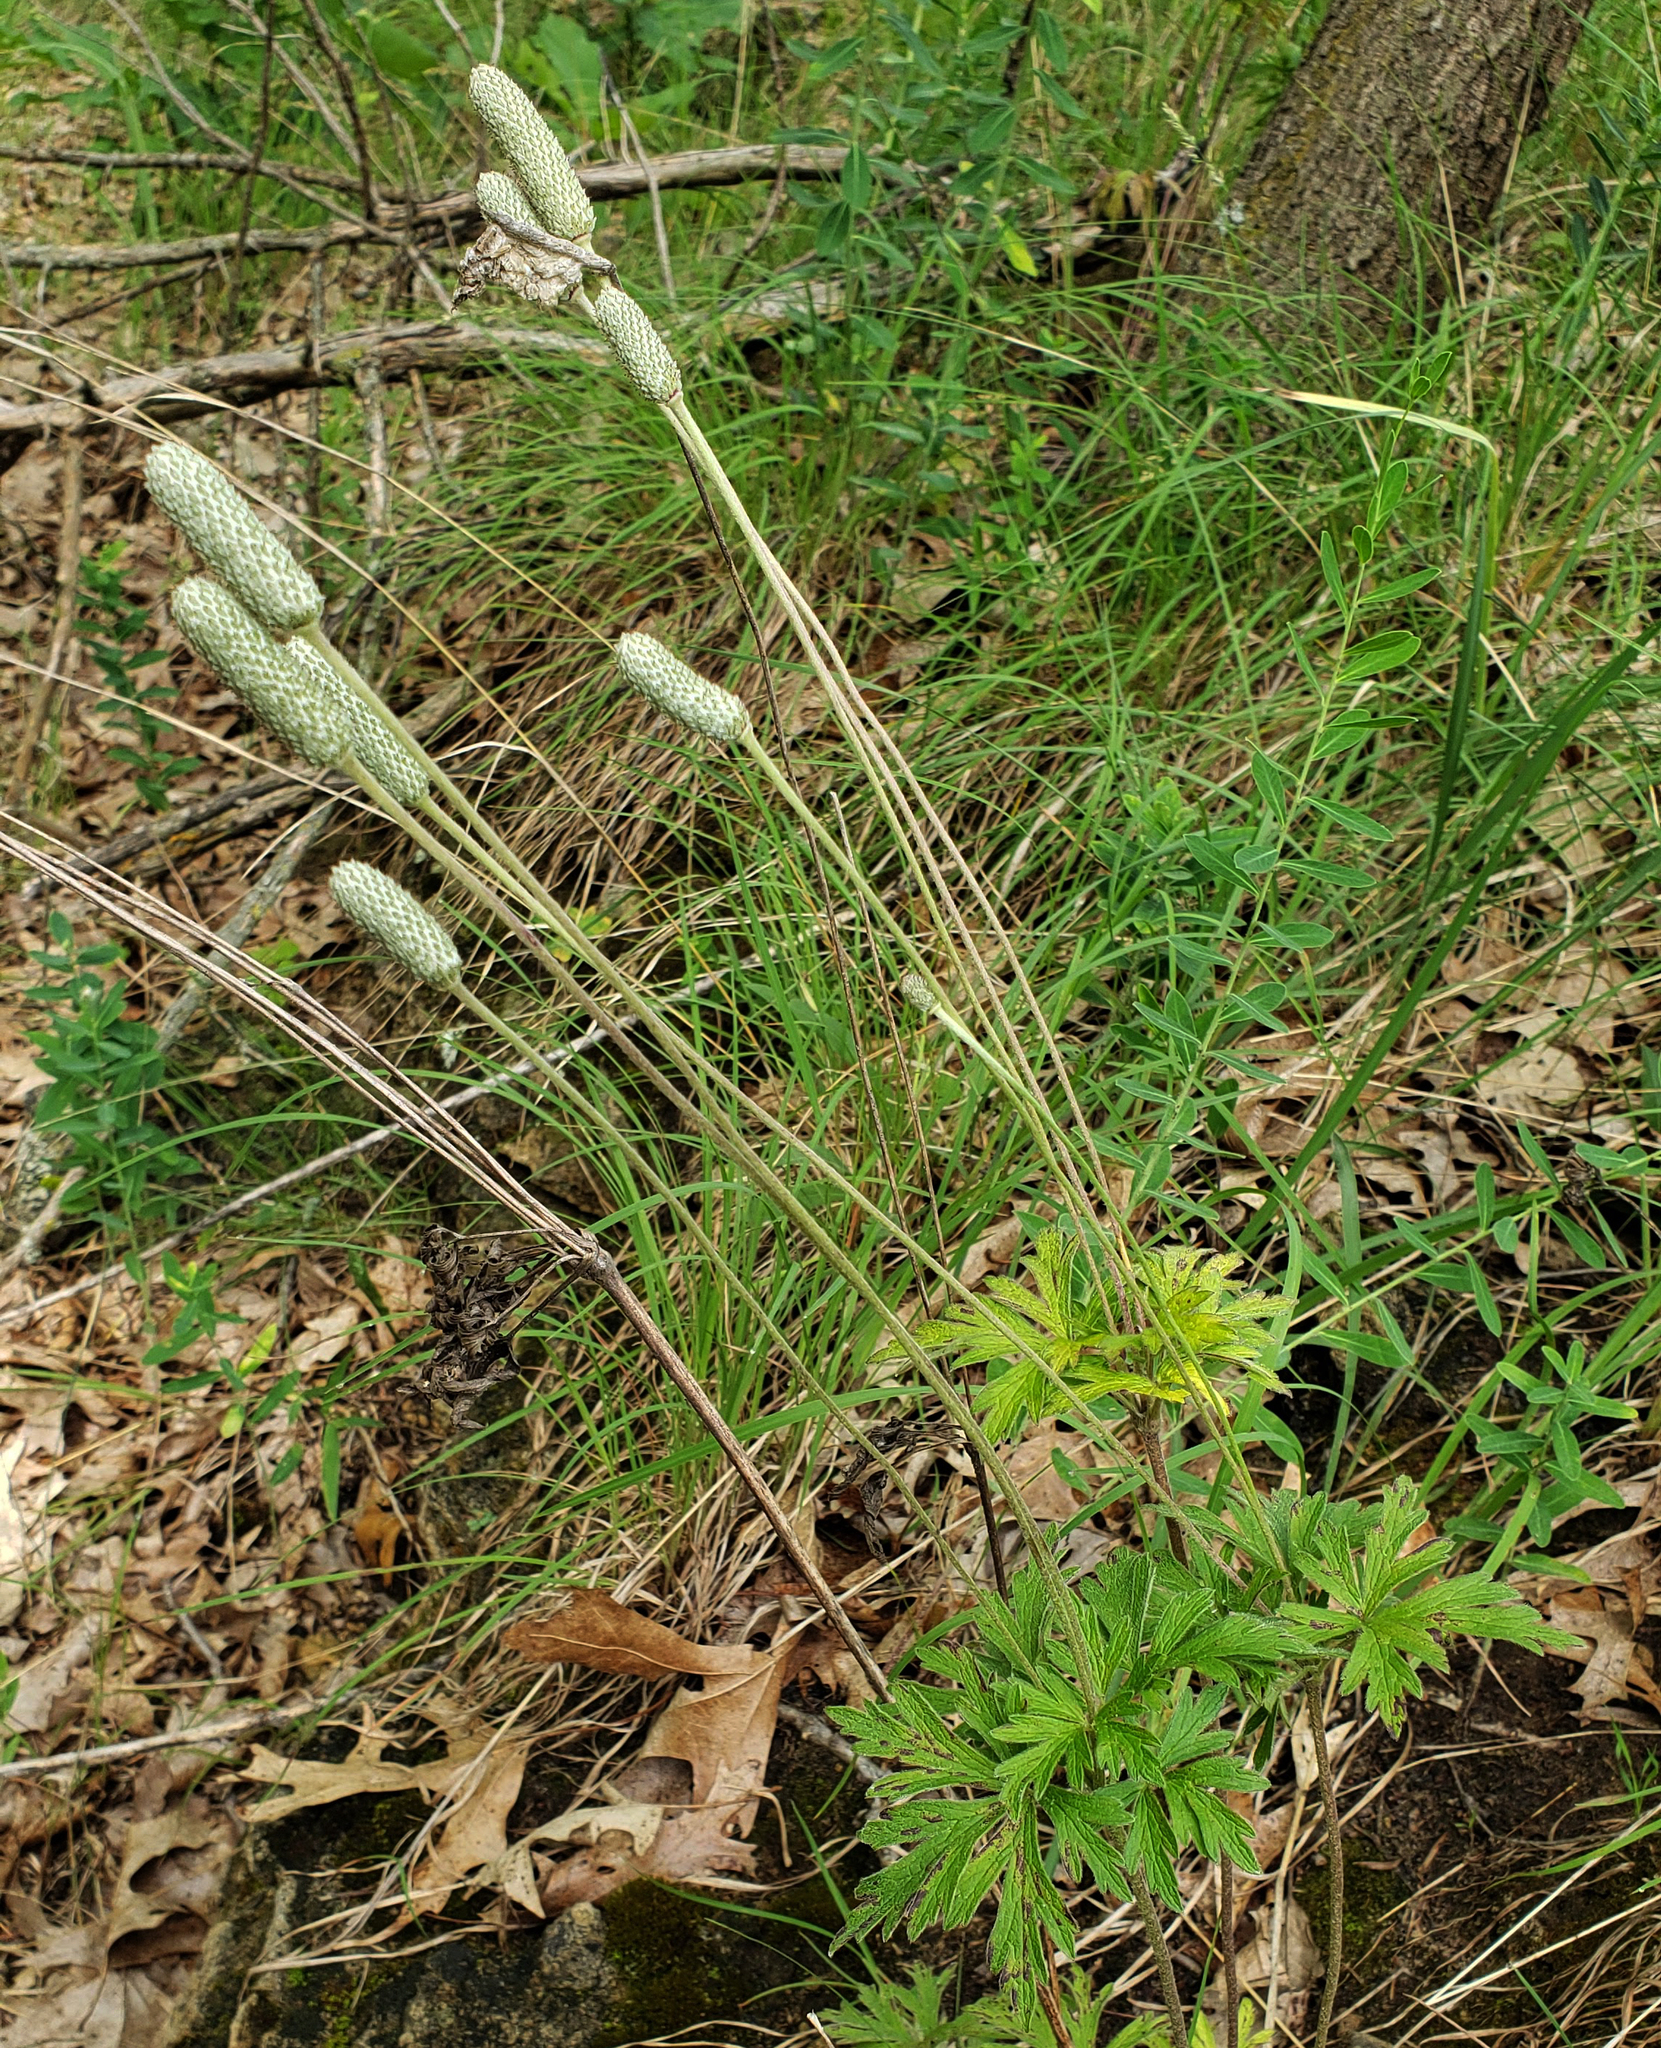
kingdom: Plantae
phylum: Tracheophyta
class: Magnoliopsida
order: Ranunculales
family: Ranunculaceae
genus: Anemone
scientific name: Anemone cylindrica
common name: Candle anemone
